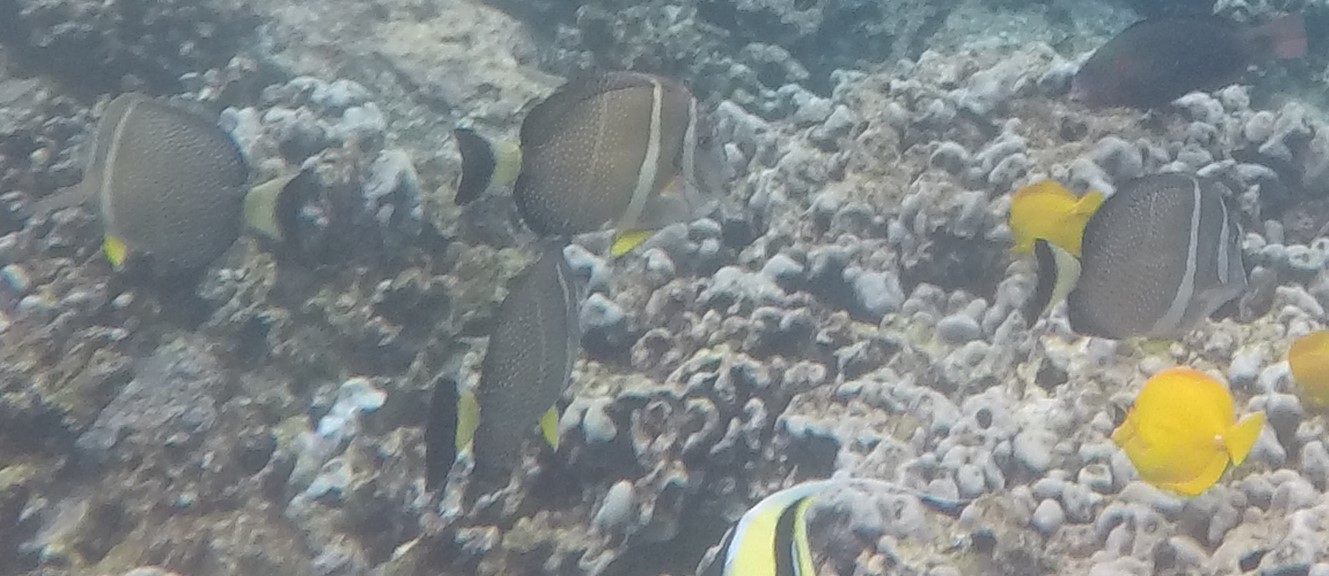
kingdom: Animalia
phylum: Chordata
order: Perciformes
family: Acanthuridae
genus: Acanthurus
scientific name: Acanthurus guttatus
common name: Whitespotted surgeonfish
